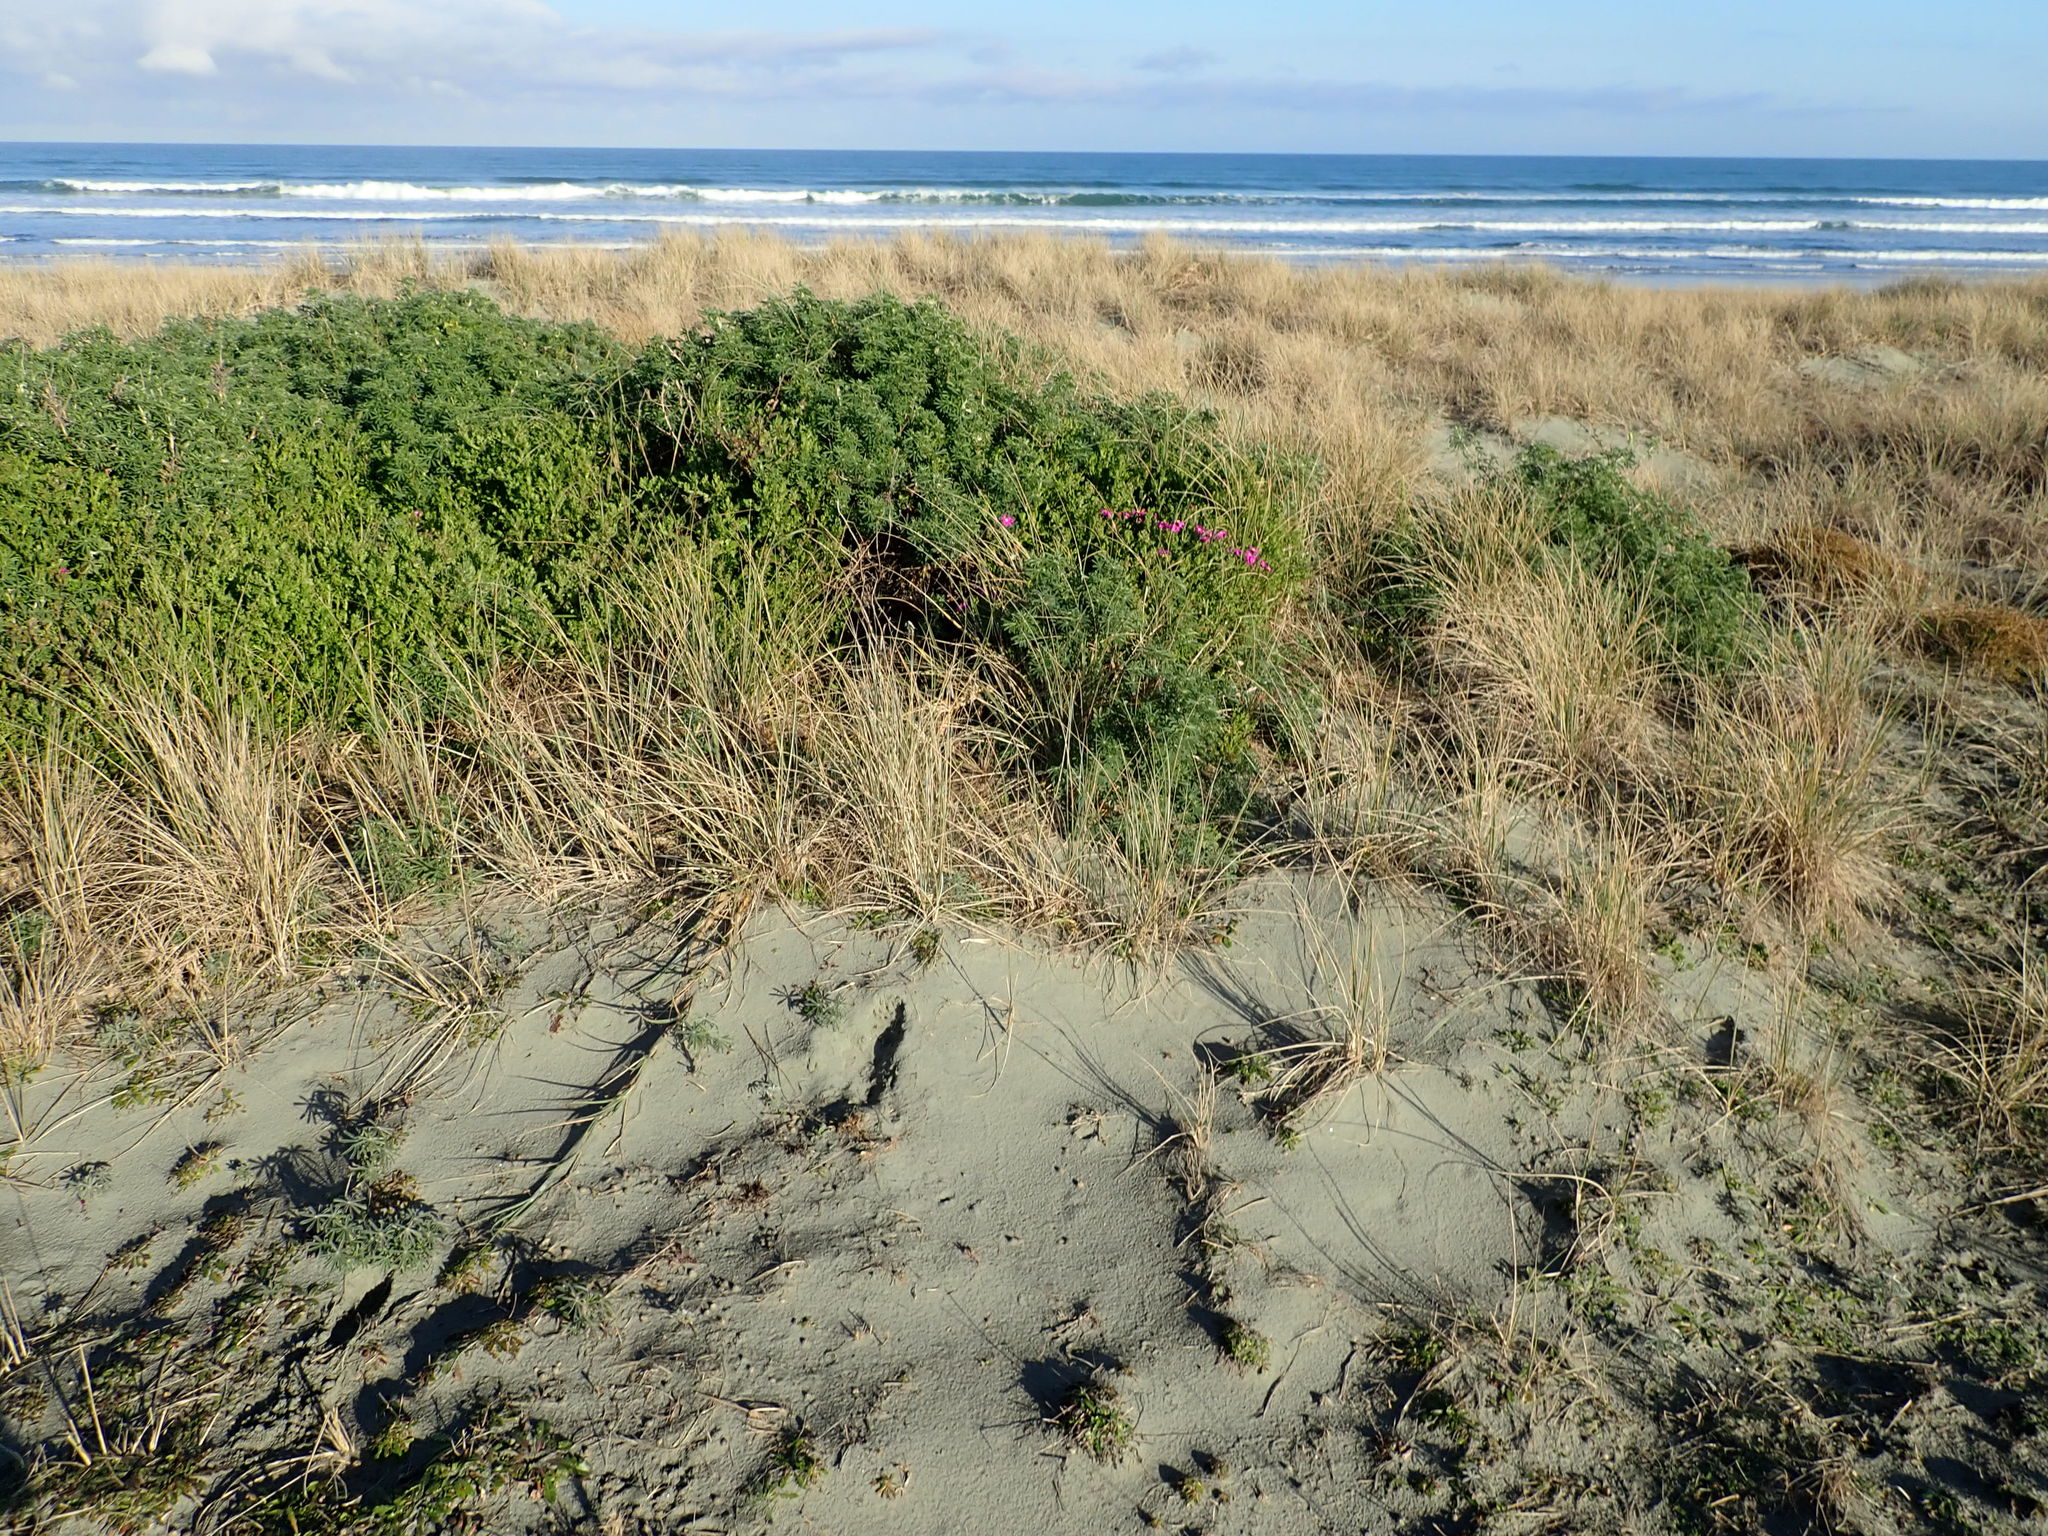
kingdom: Plantae
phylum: Tracheophyta
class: Magnoliopsida
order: Asterales
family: Asteraceae
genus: Senecio
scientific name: Senecio elegans
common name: Purple groundsel
